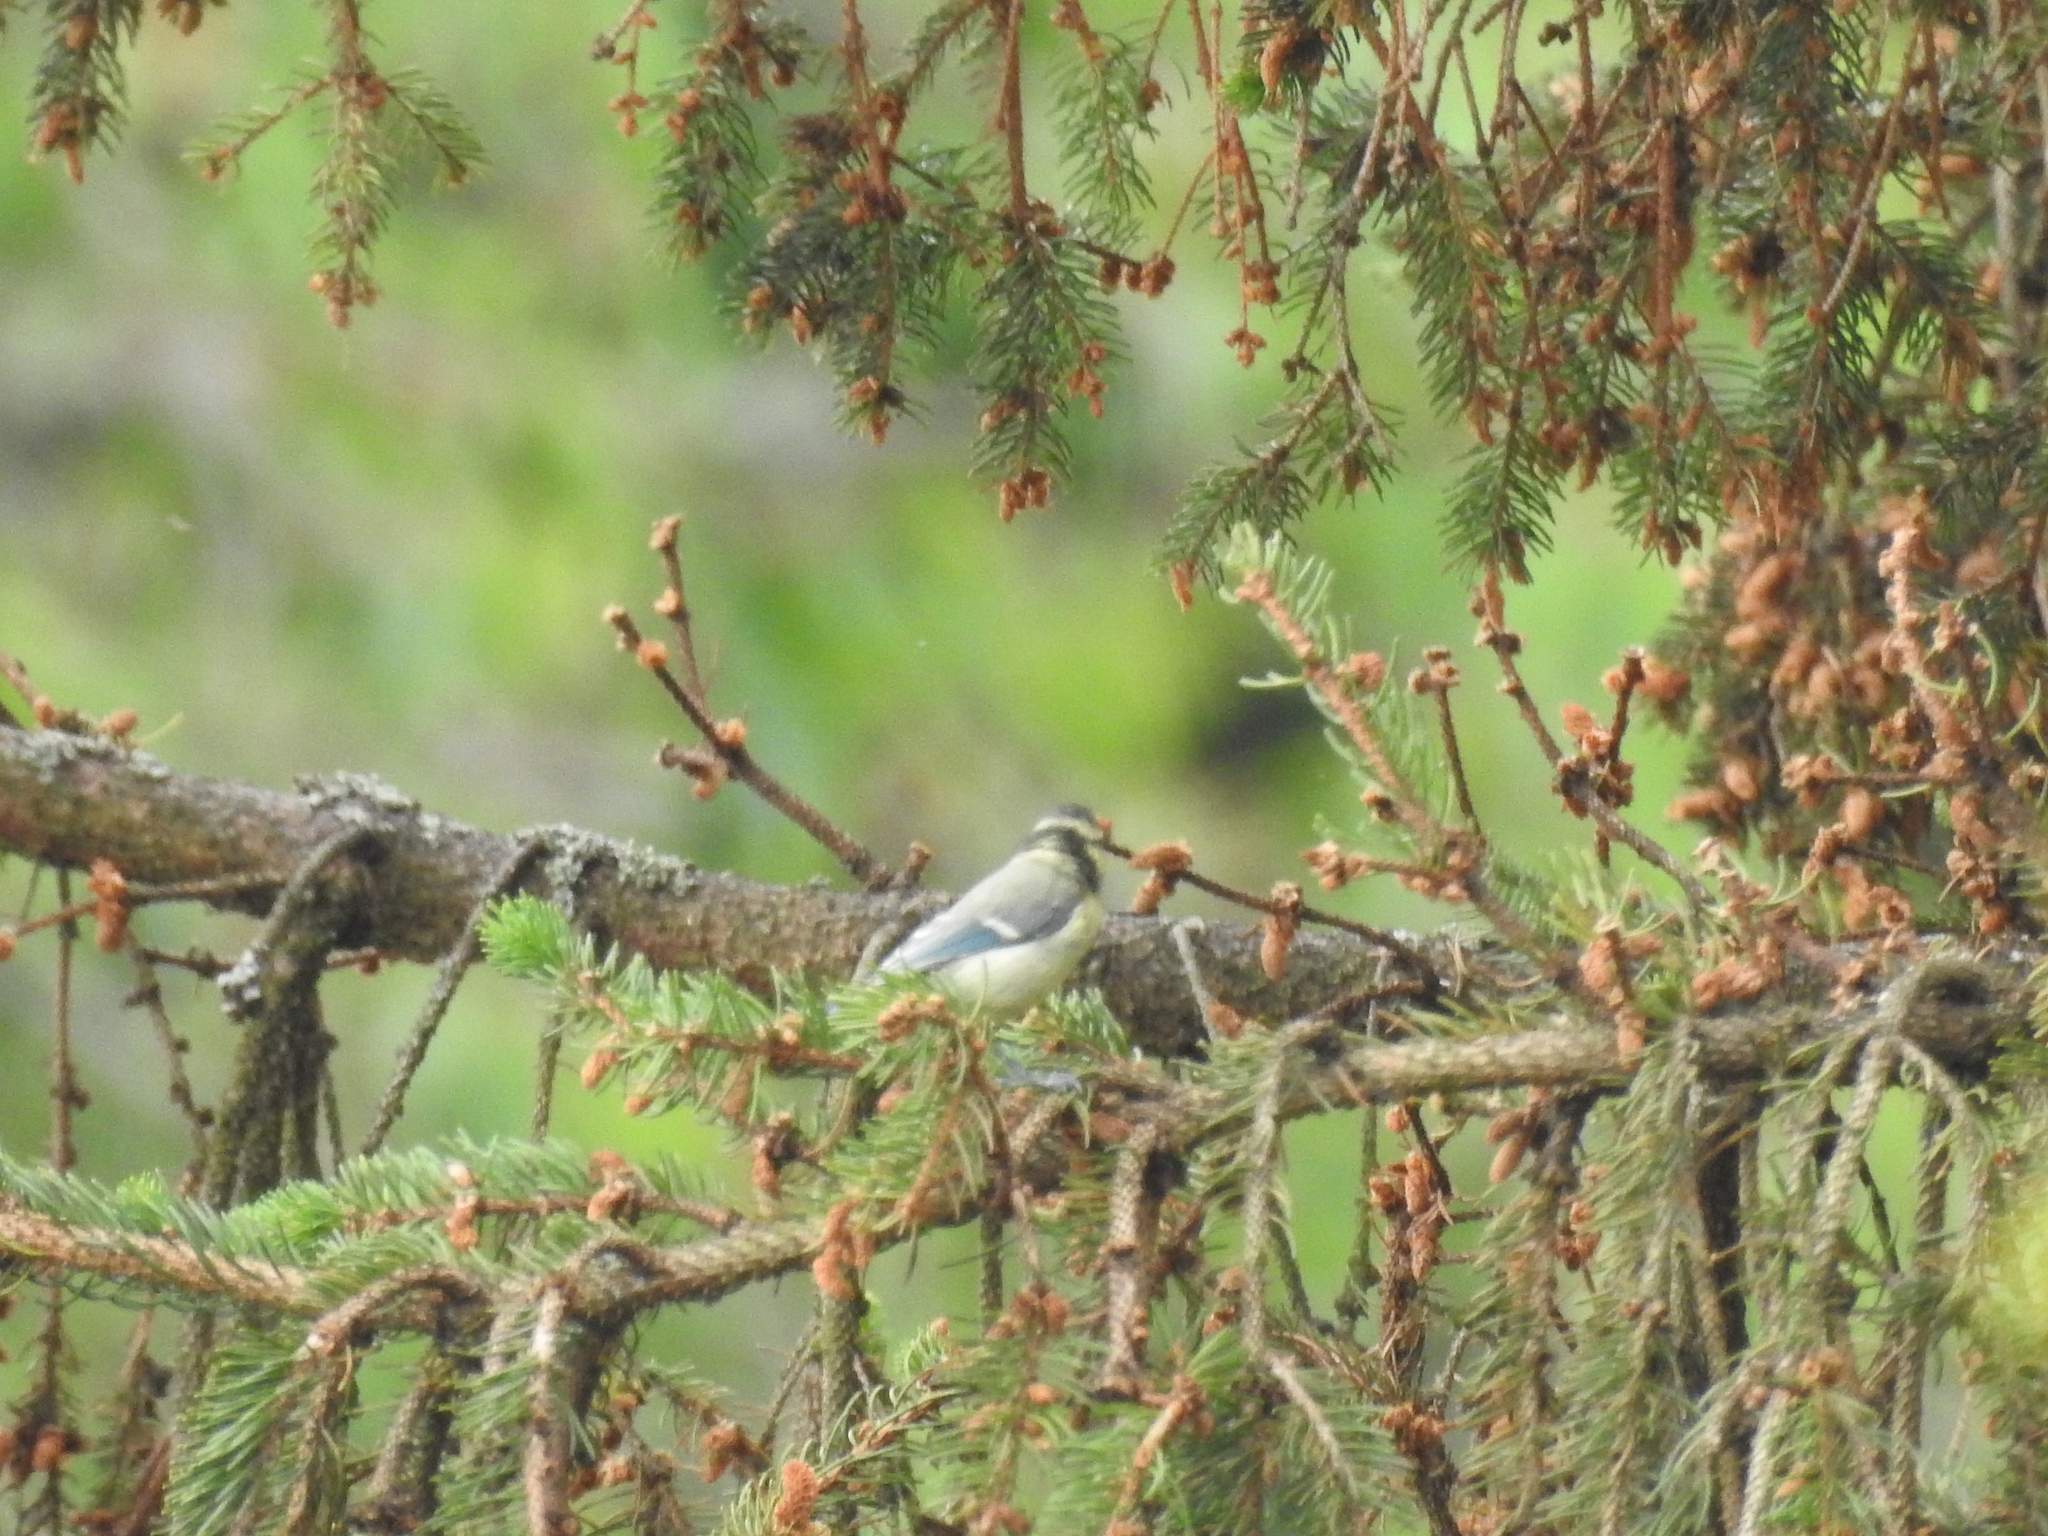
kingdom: Animalia
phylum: Chordata
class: Aves
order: Passeriformes
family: Paridae
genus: Cyanistes
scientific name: Cyanistes caeruleus
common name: Eurasian blue tit
